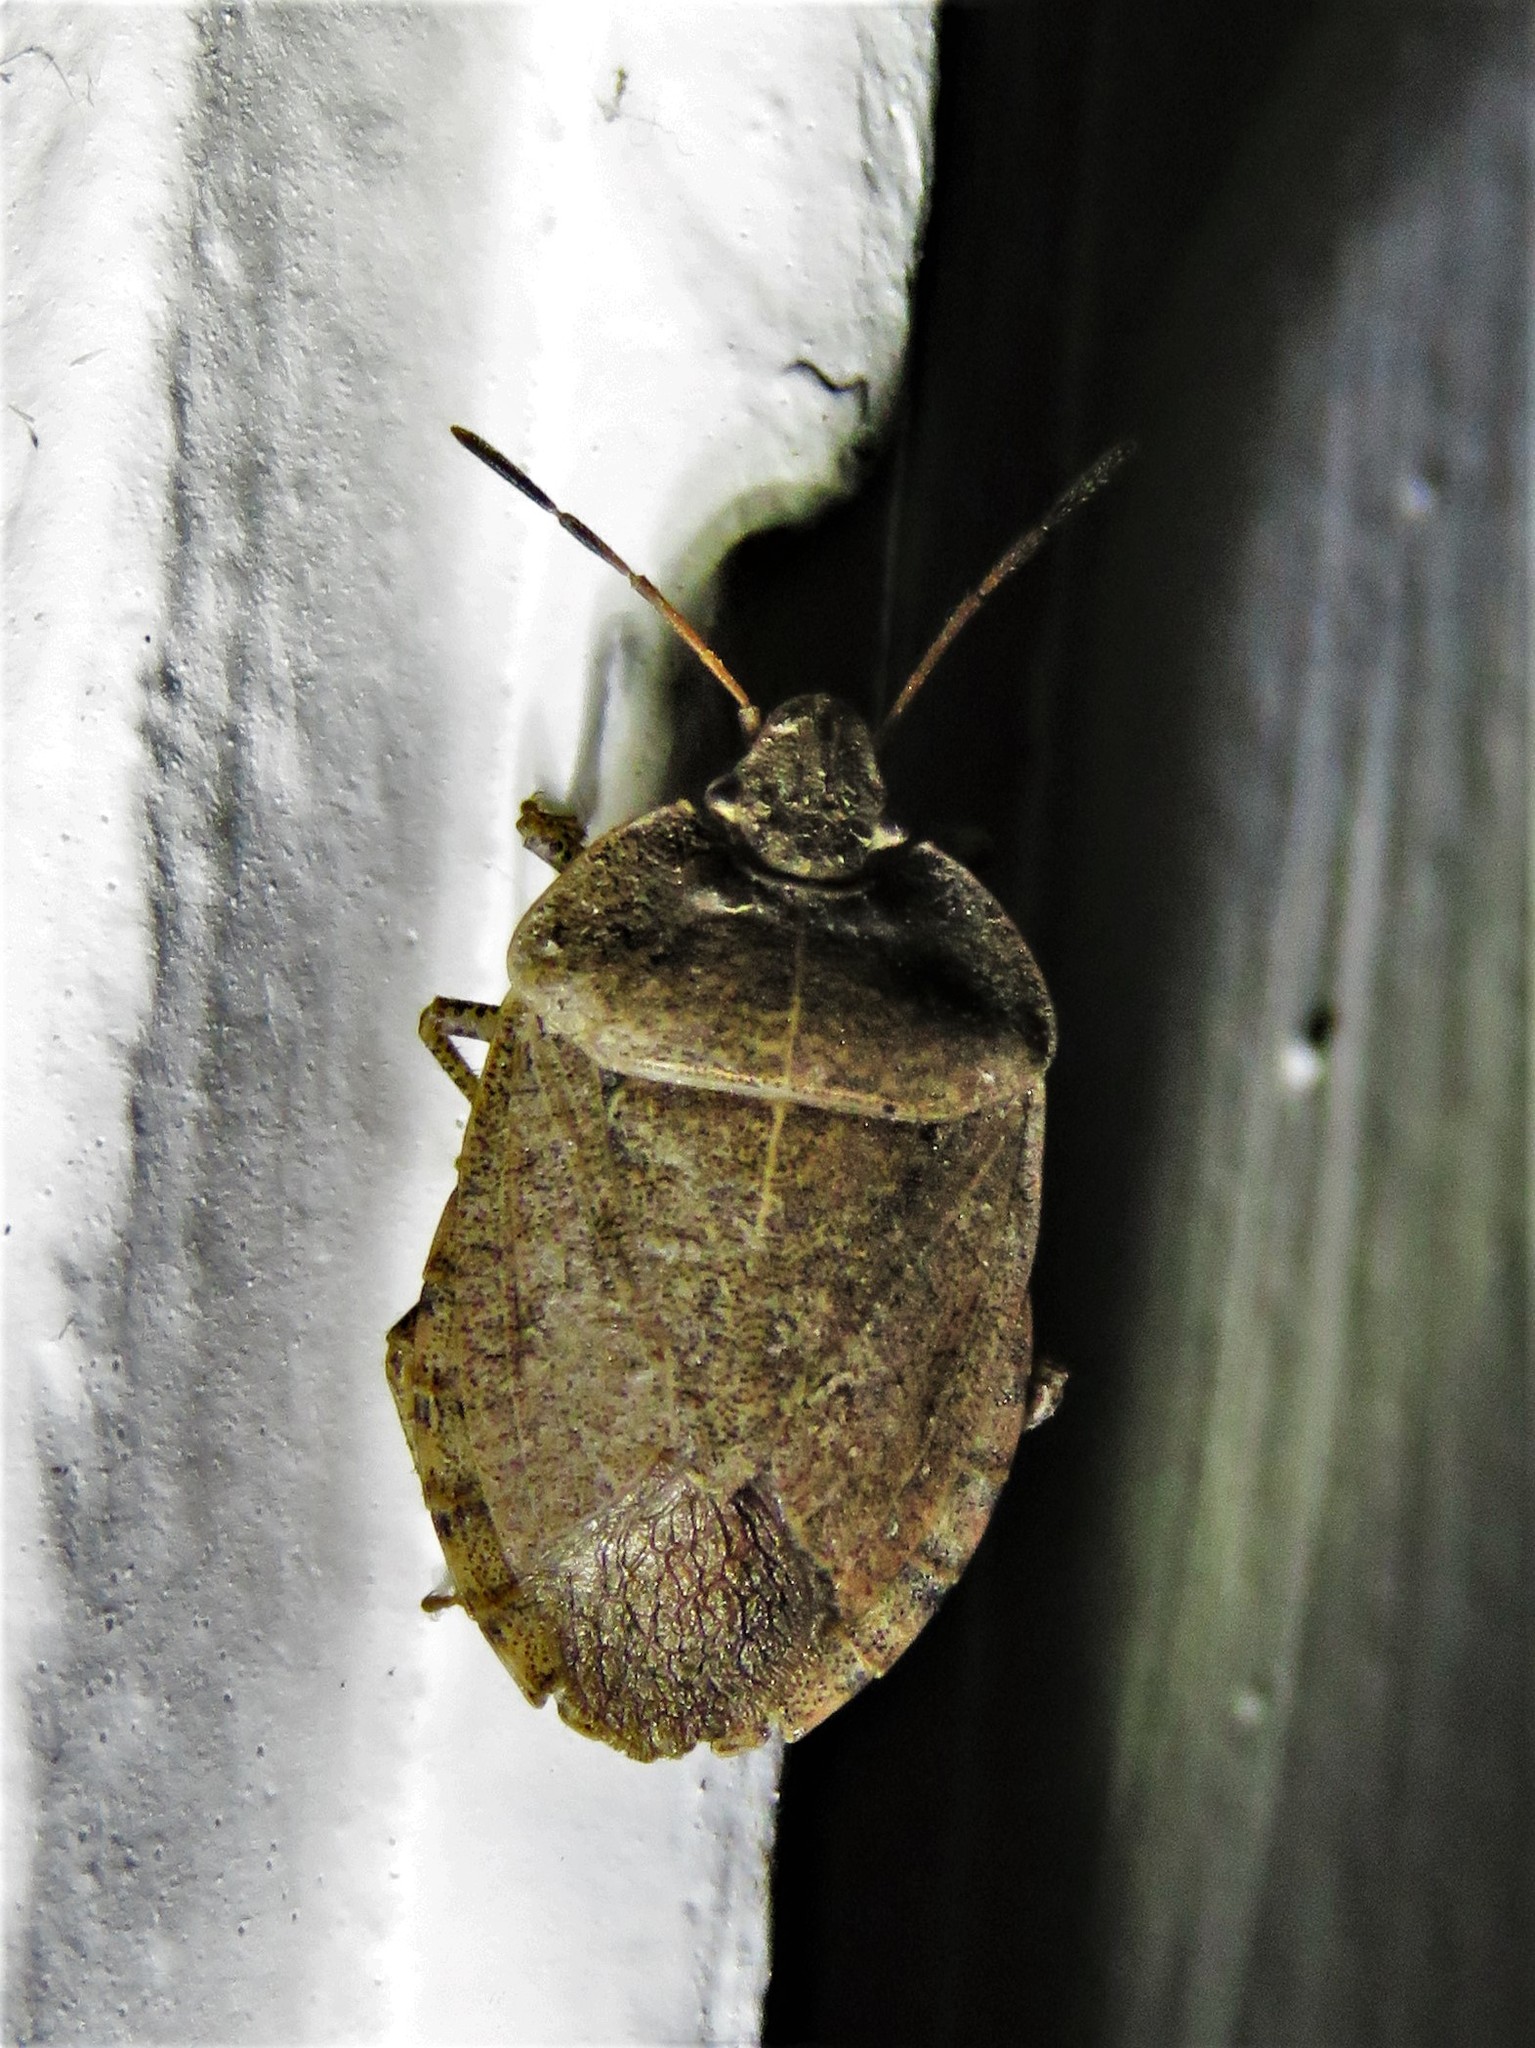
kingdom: Animalia
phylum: Arthropoda
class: Insecta
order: Hemiptera
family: Pentatomidae
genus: Menecles
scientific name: Menecles insertus
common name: Elf shoe stink bug
